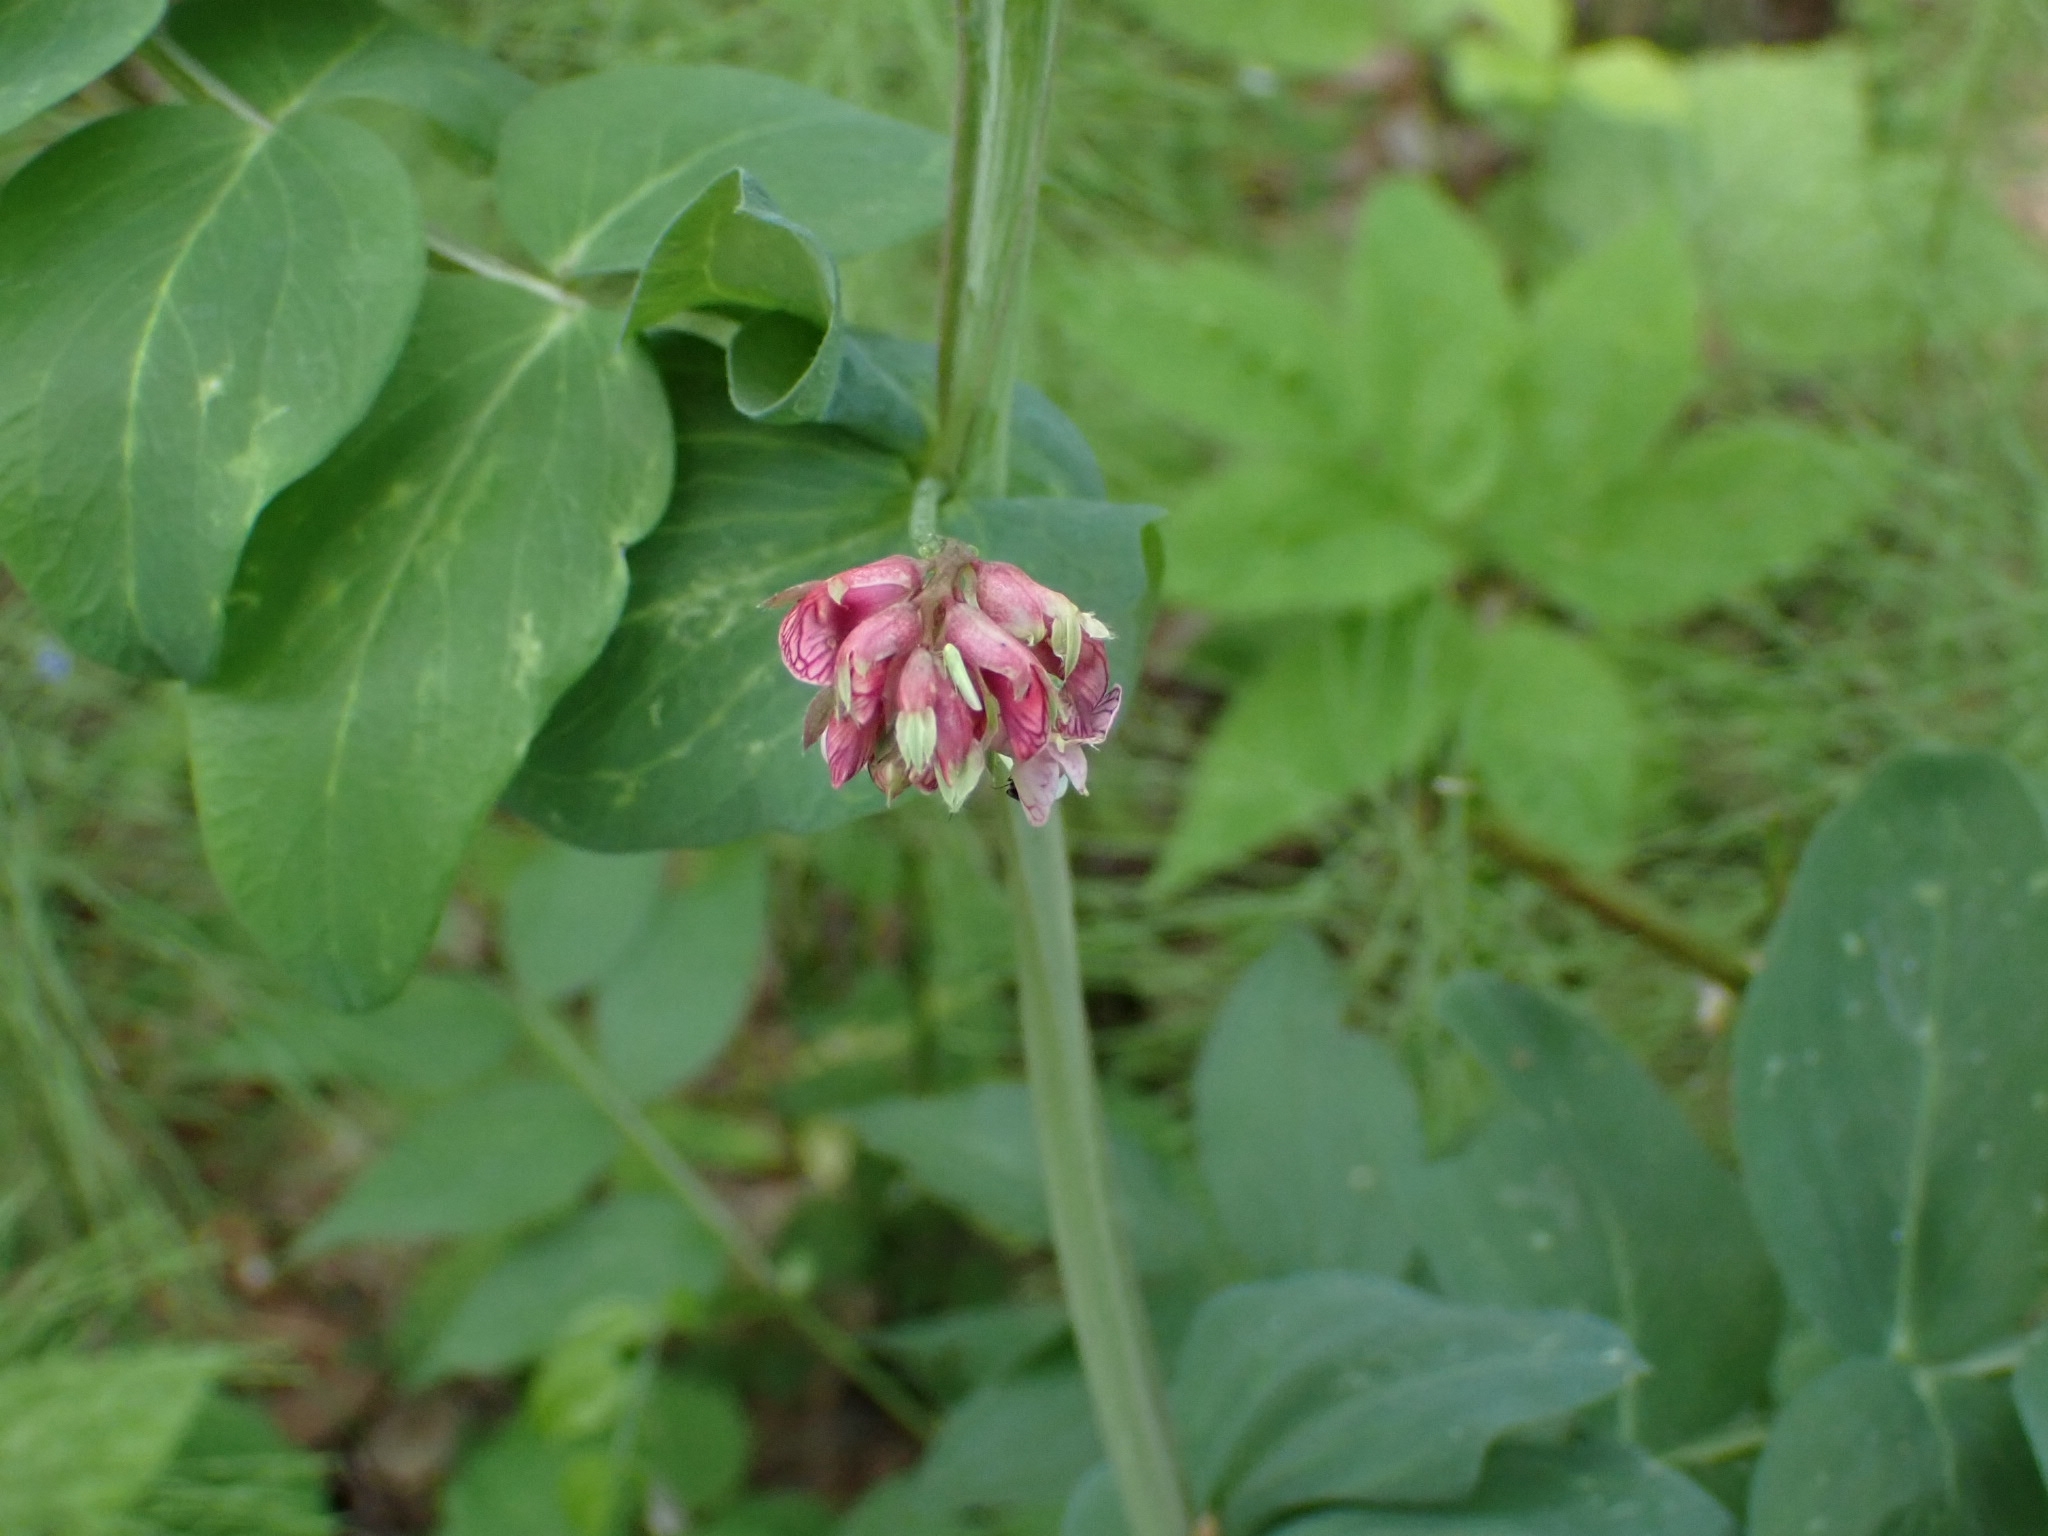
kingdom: Plantae
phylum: Tracheophyta
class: Magnoliopsida
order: Fabales
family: Fabaceae
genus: Lathyrus
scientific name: Lathyrus pisiformis
